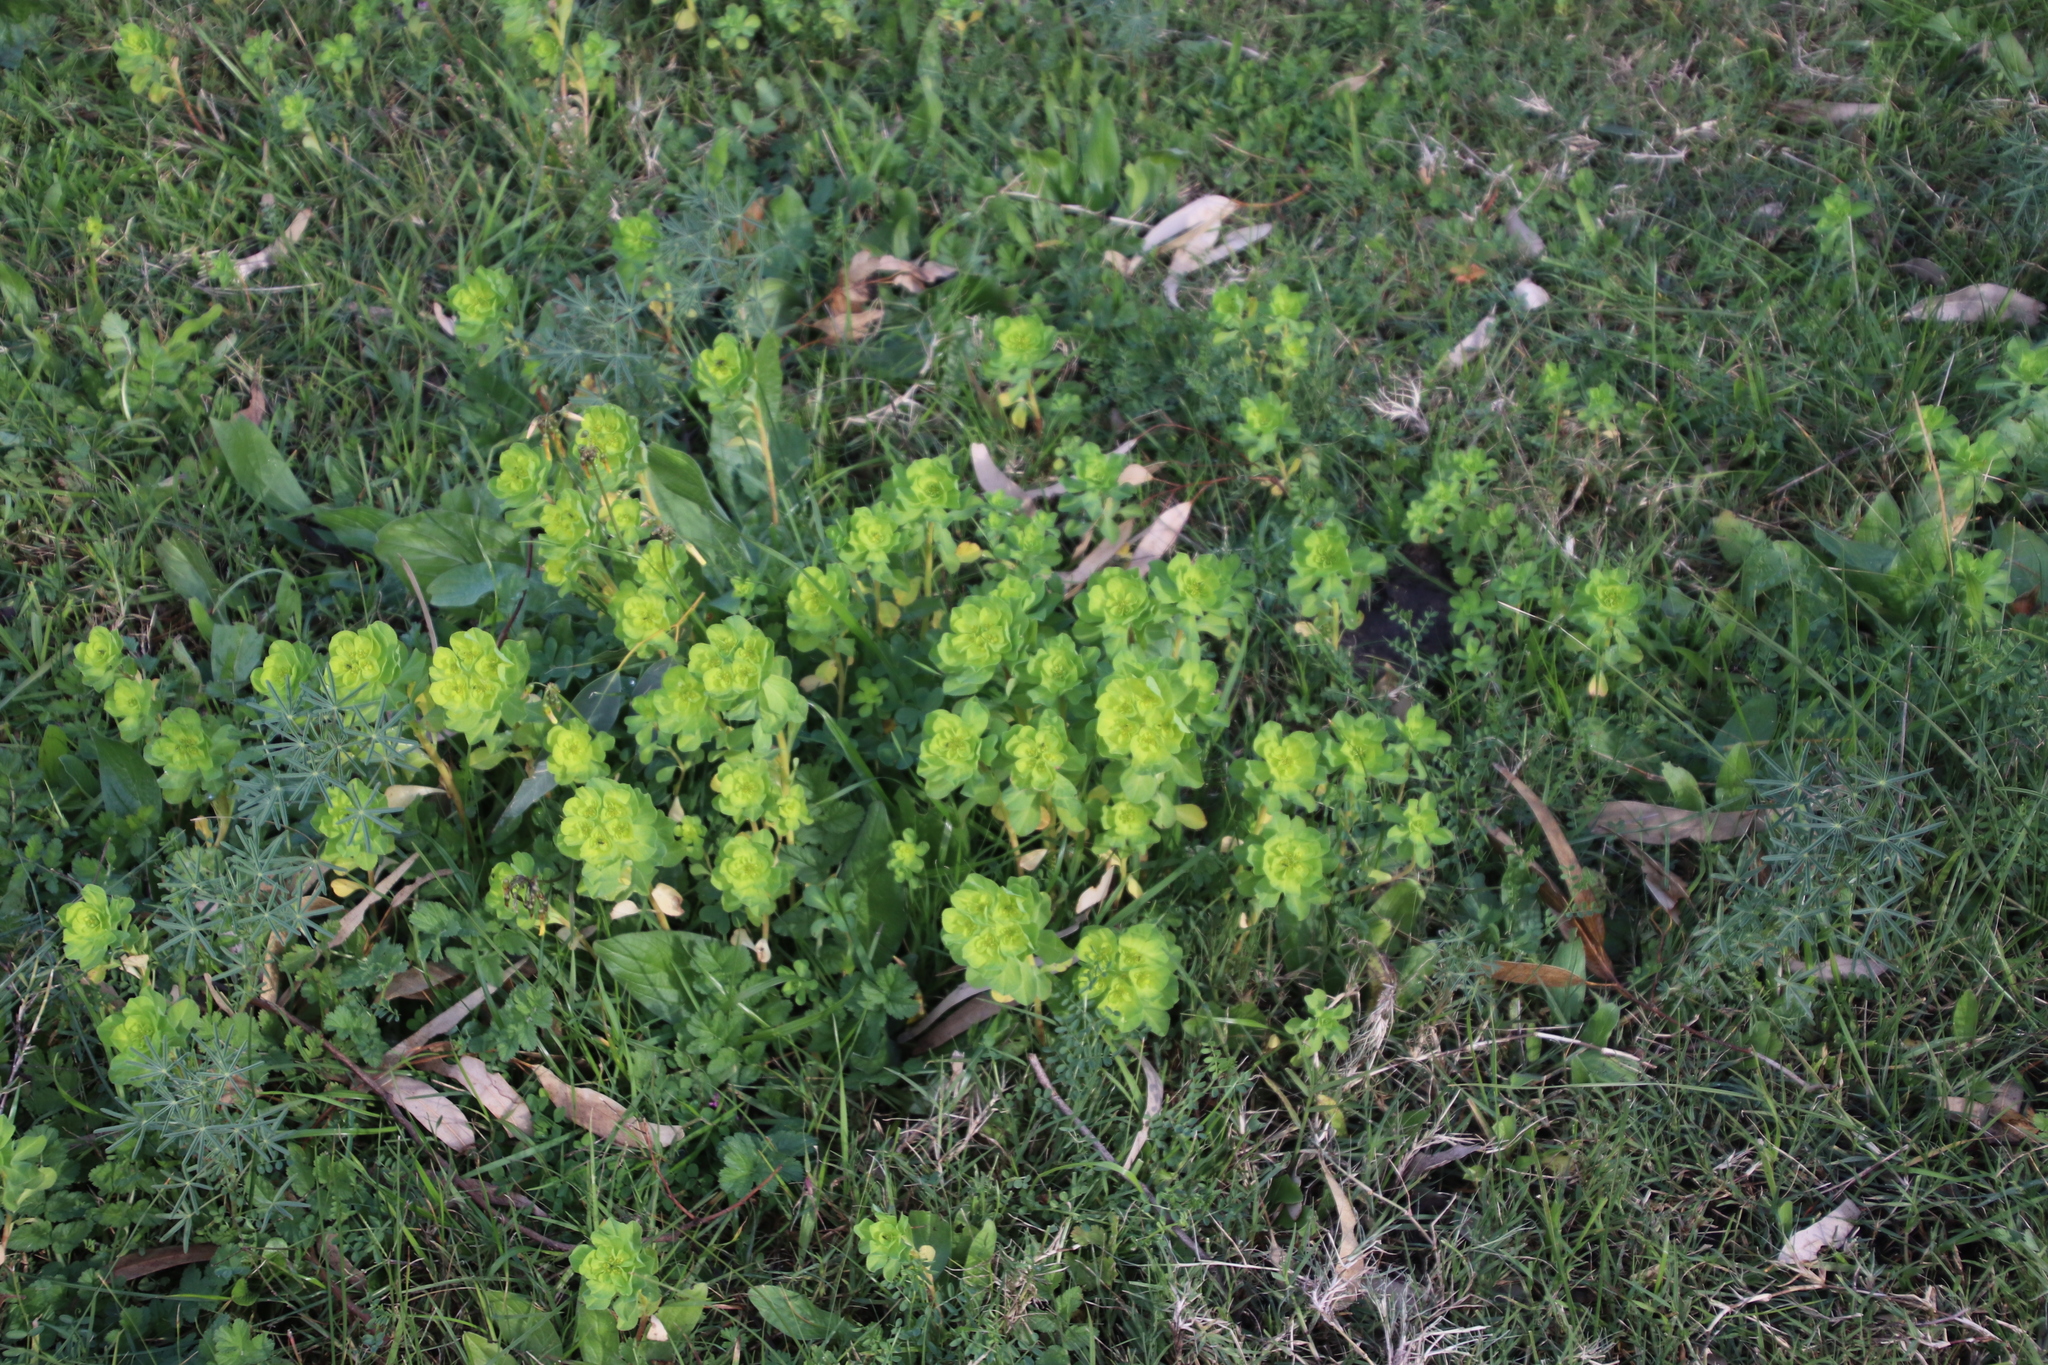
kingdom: Plantae
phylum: Tracheophyta
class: Magnoliopsida
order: Malpighiales
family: Euphorbiaceae
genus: Euphorbia
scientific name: Euphorbia helioscopia
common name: Sun spurge
